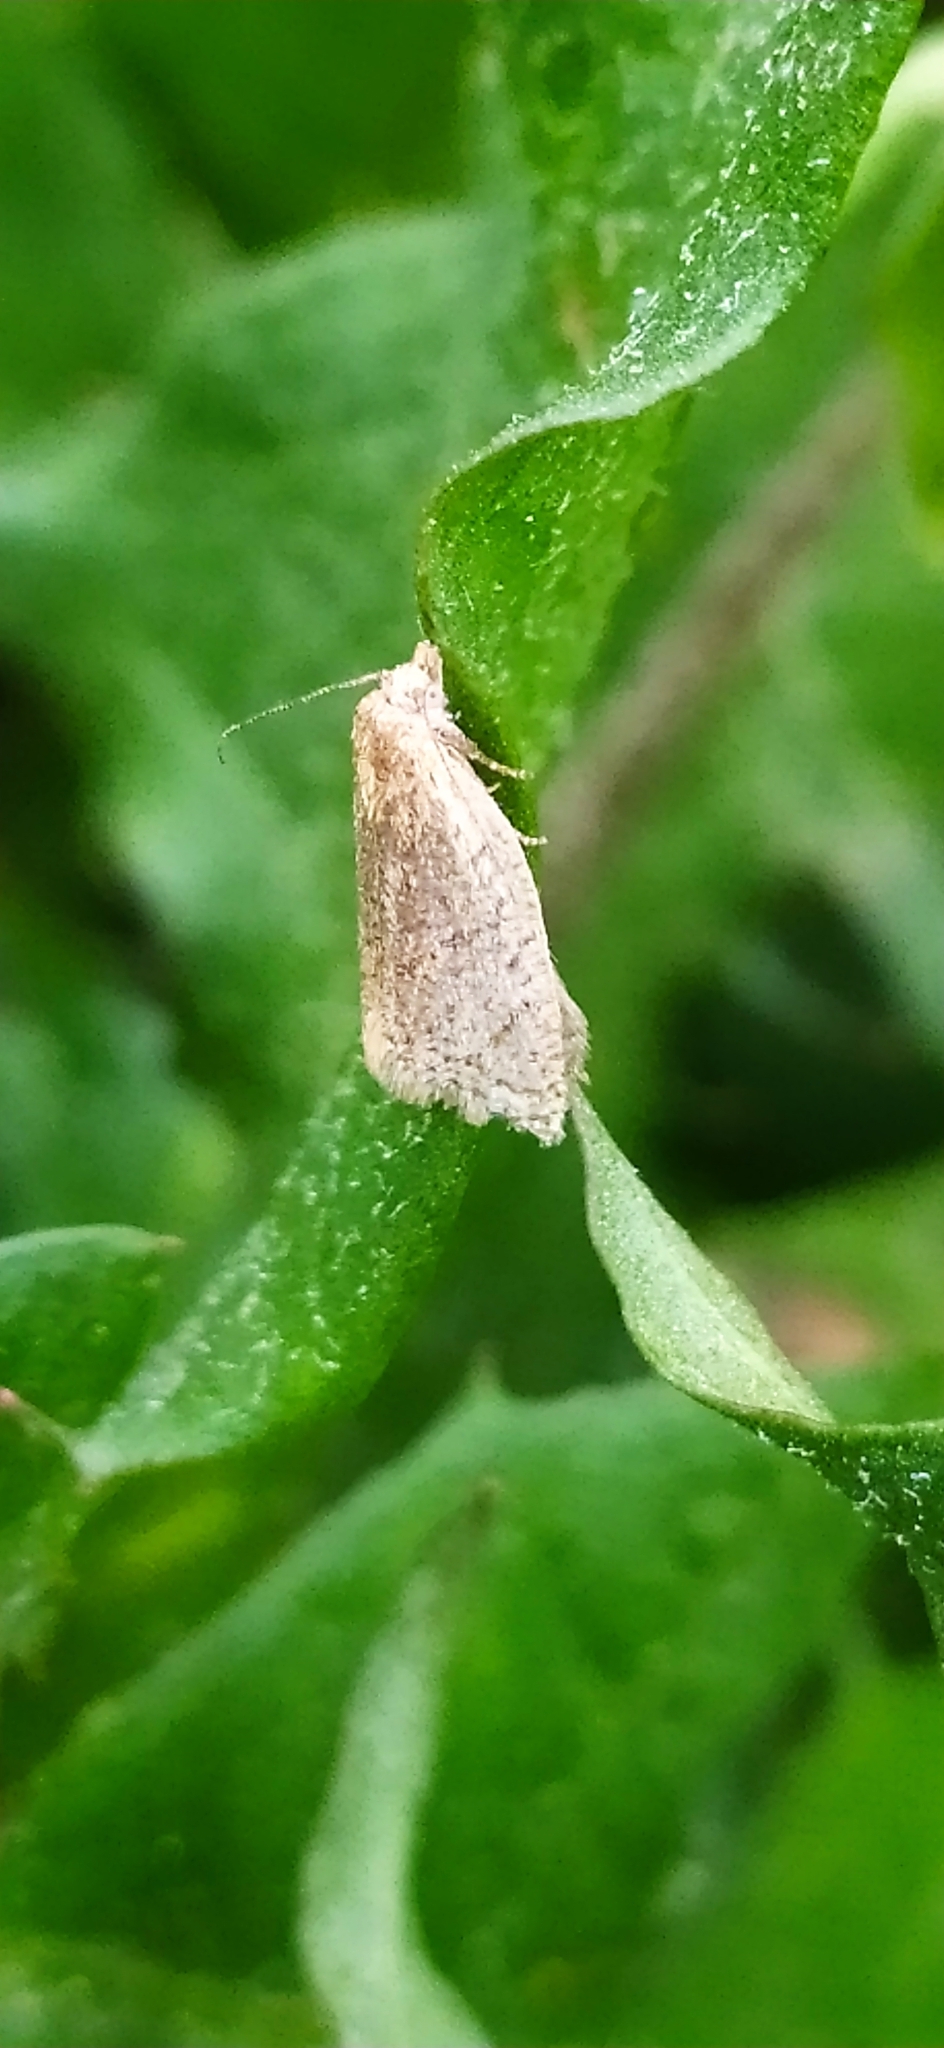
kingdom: Animalia
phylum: Arthropoda
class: Insecta
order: Lepidoptera
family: Tortricidae
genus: Clepsis
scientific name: Clepsis senecionana
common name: Obscure tortrix
